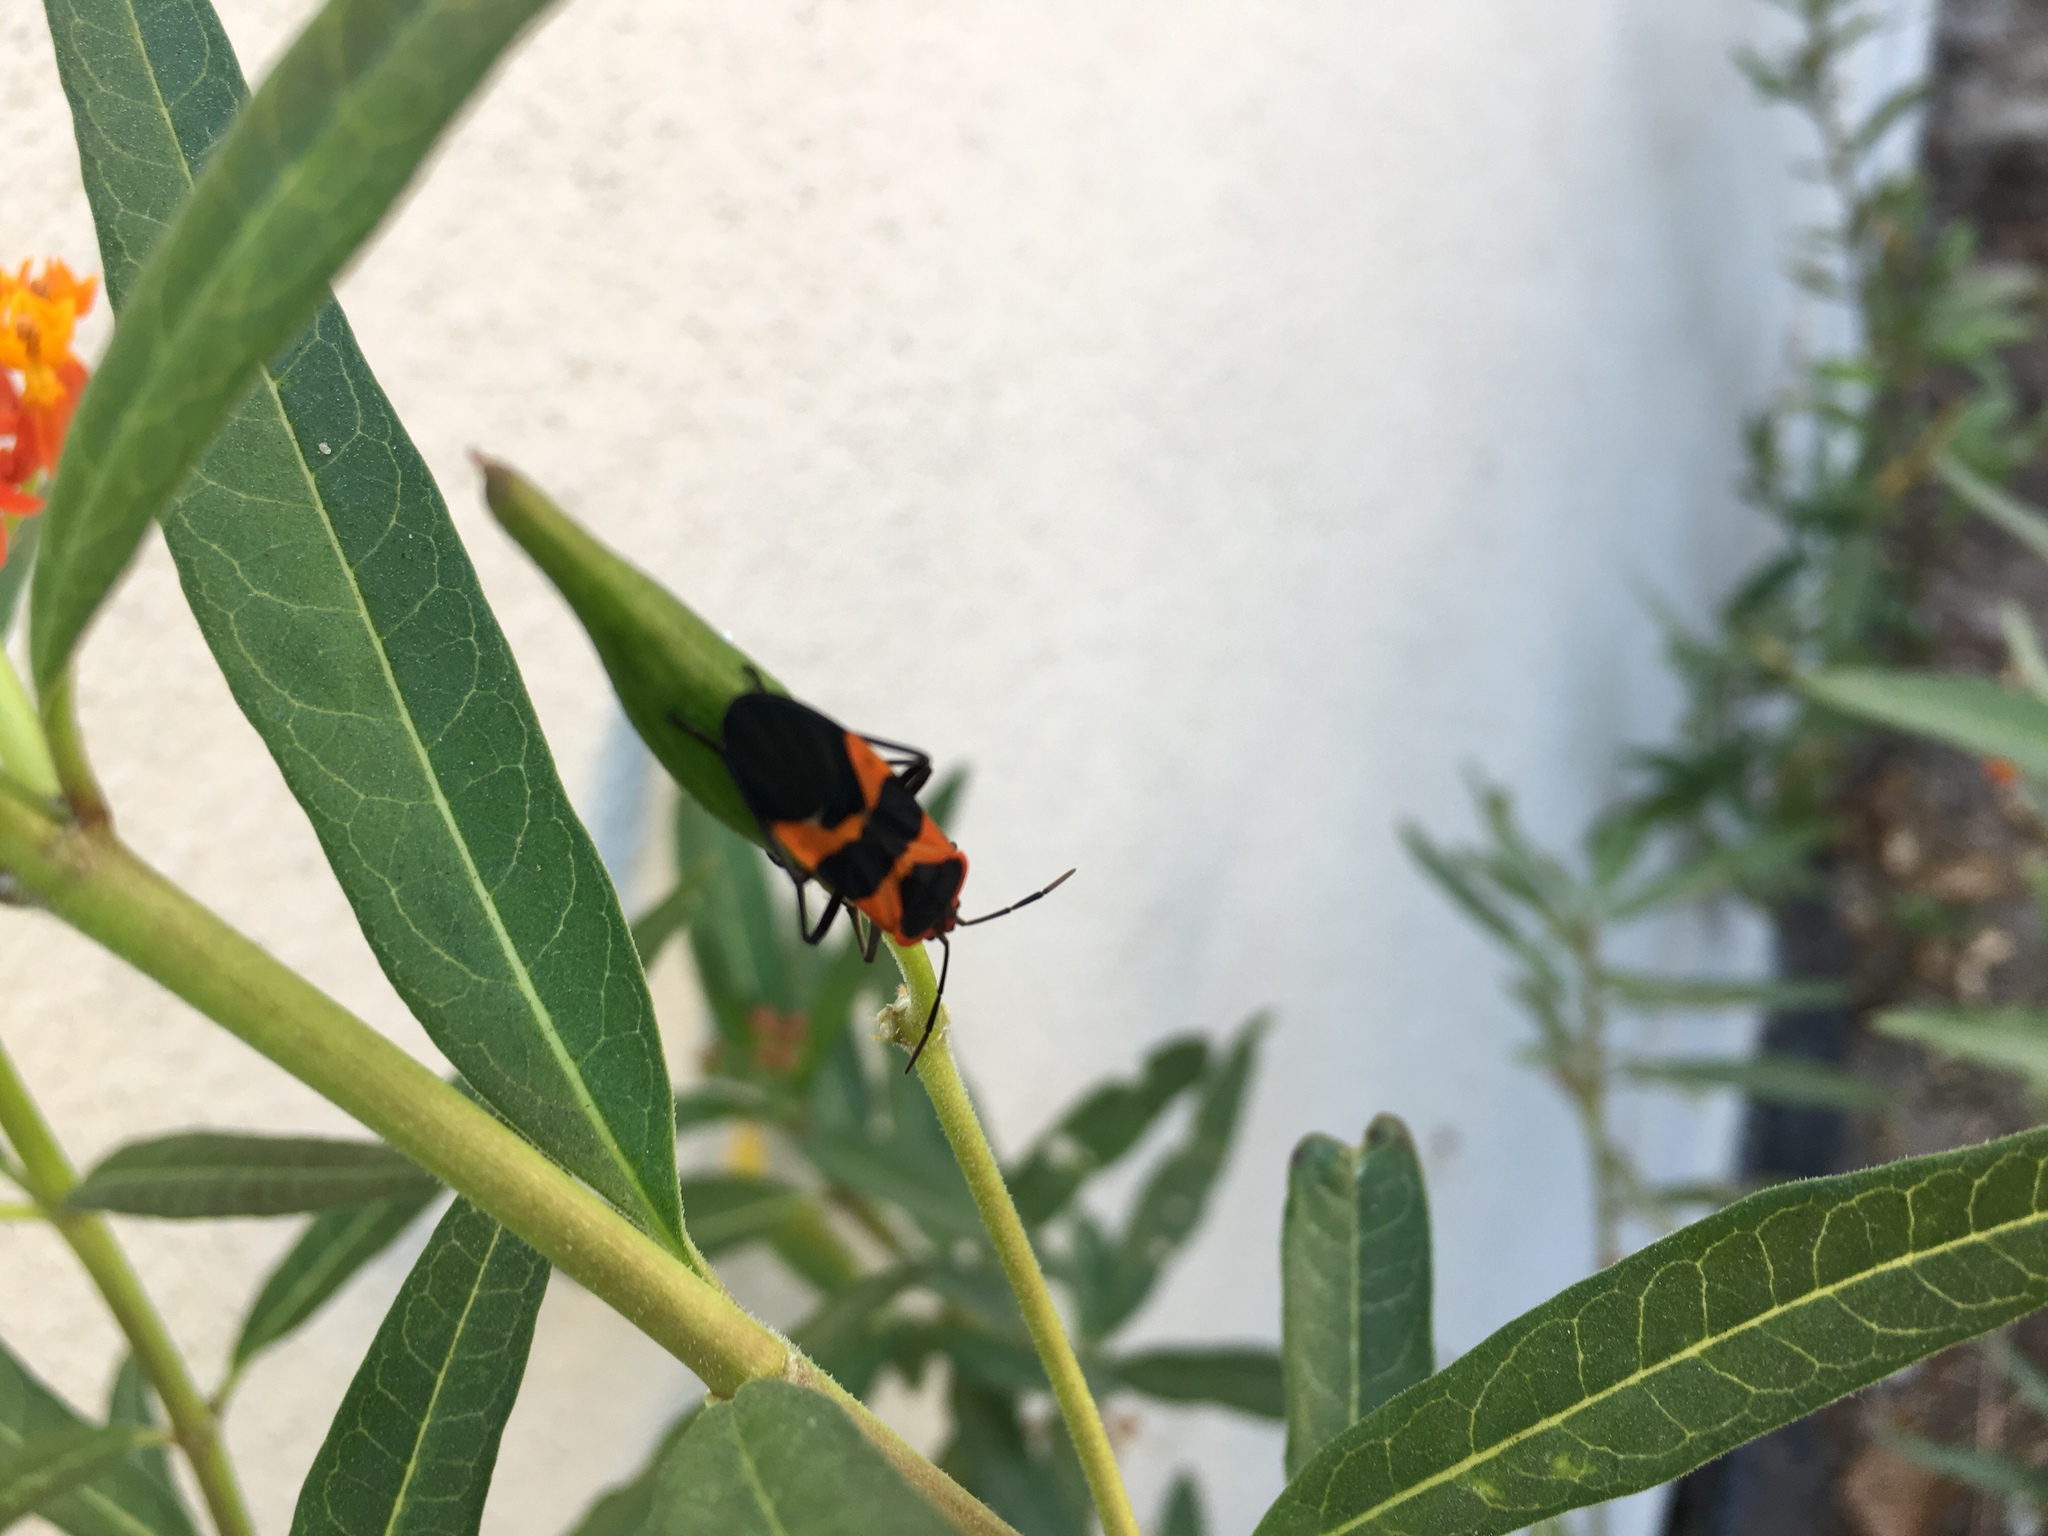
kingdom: Animalia
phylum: Arthropoda
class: Insecta
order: Hemiptera
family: Lygaeidae
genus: Oncopeltus
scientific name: Oncopeltus fasciatus
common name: Large milkweed bug
